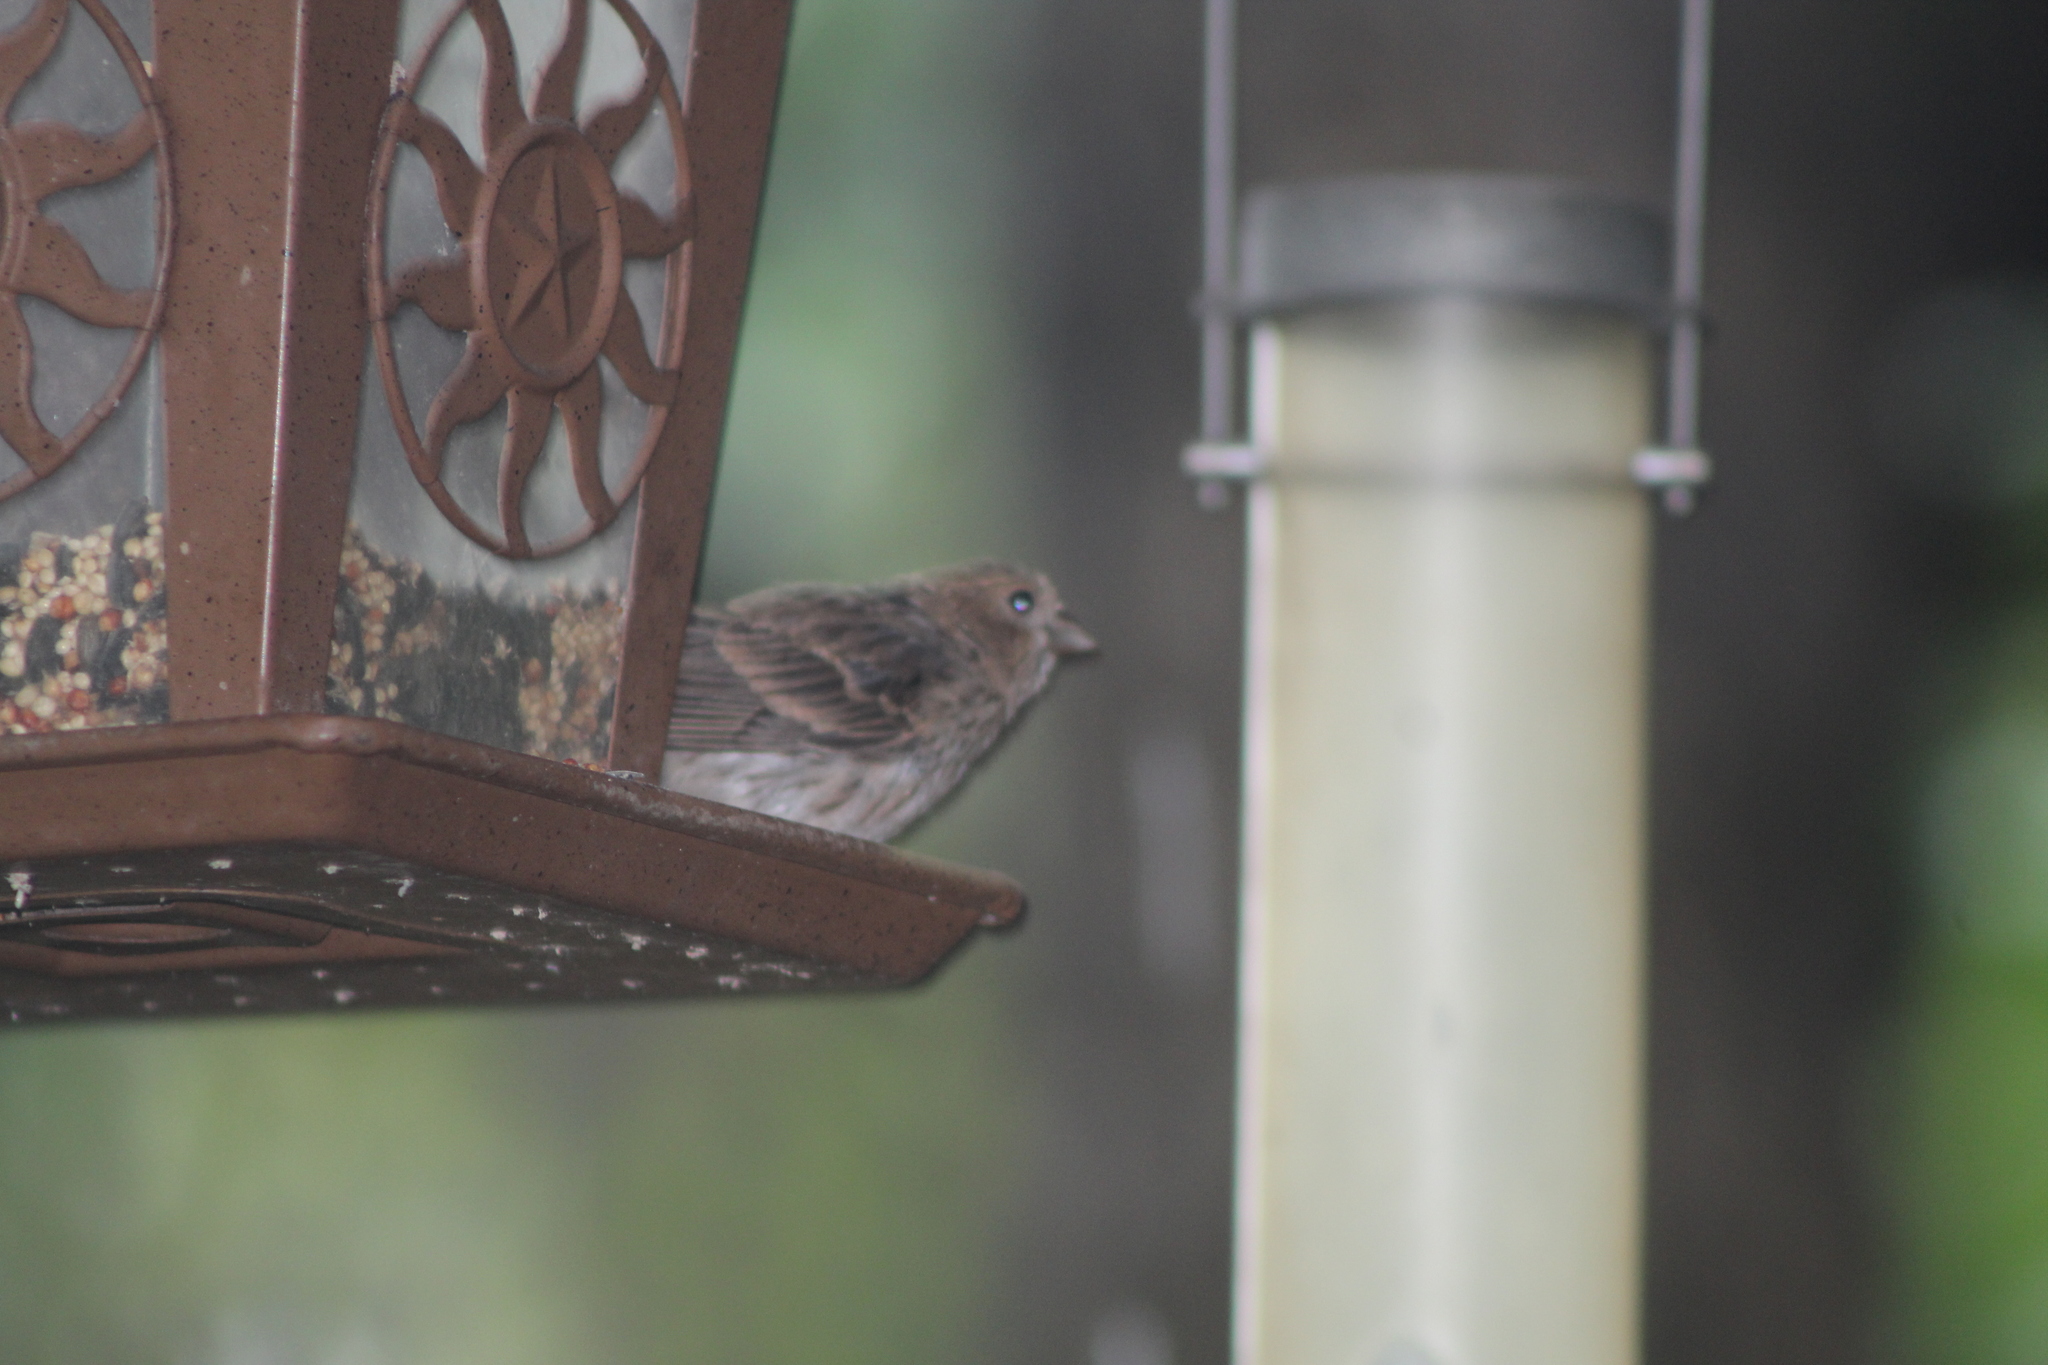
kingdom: Animalia
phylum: Chordata
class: Aves
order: Passeriformes
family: Fringillidae
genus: Haemorhous
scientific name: Haemorhous mexicanus
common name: House finch
